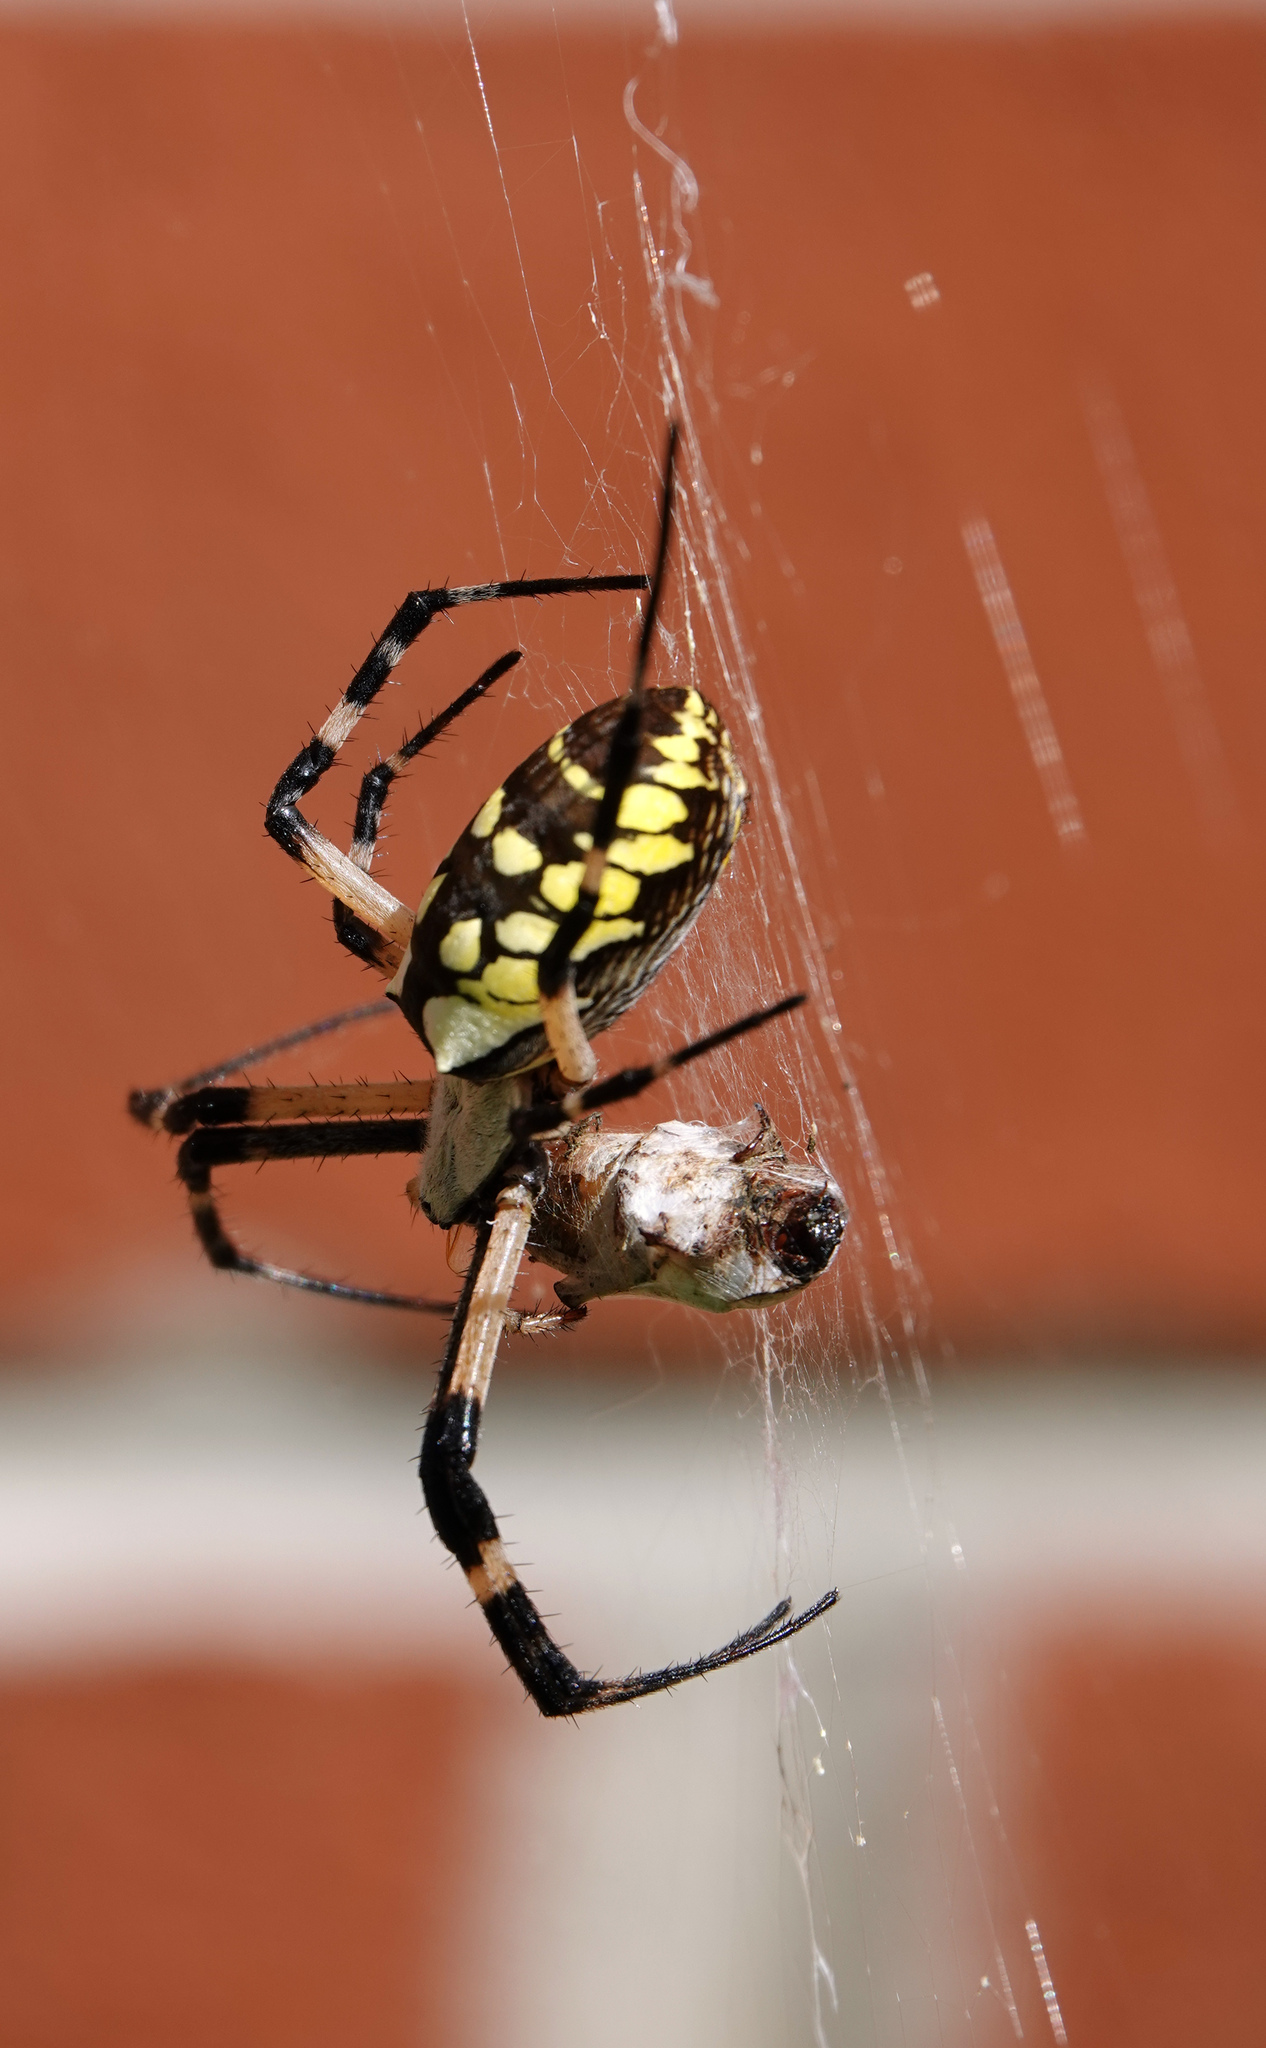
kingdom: Animalia
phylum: Arthropoda
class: Arachnida
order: Araneae
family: Araneidae
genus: Argiope
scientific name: Argiope aurantia
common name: Orb weavers
